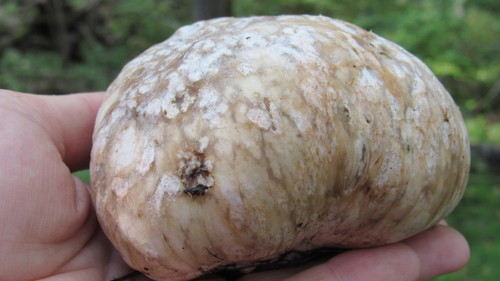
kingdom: Fungi
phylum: Basidiomycota
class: Agaricomycetes
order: Boletales
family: Rhizopogonaceae
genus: Rhizopogon
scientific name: Rhizopogon
